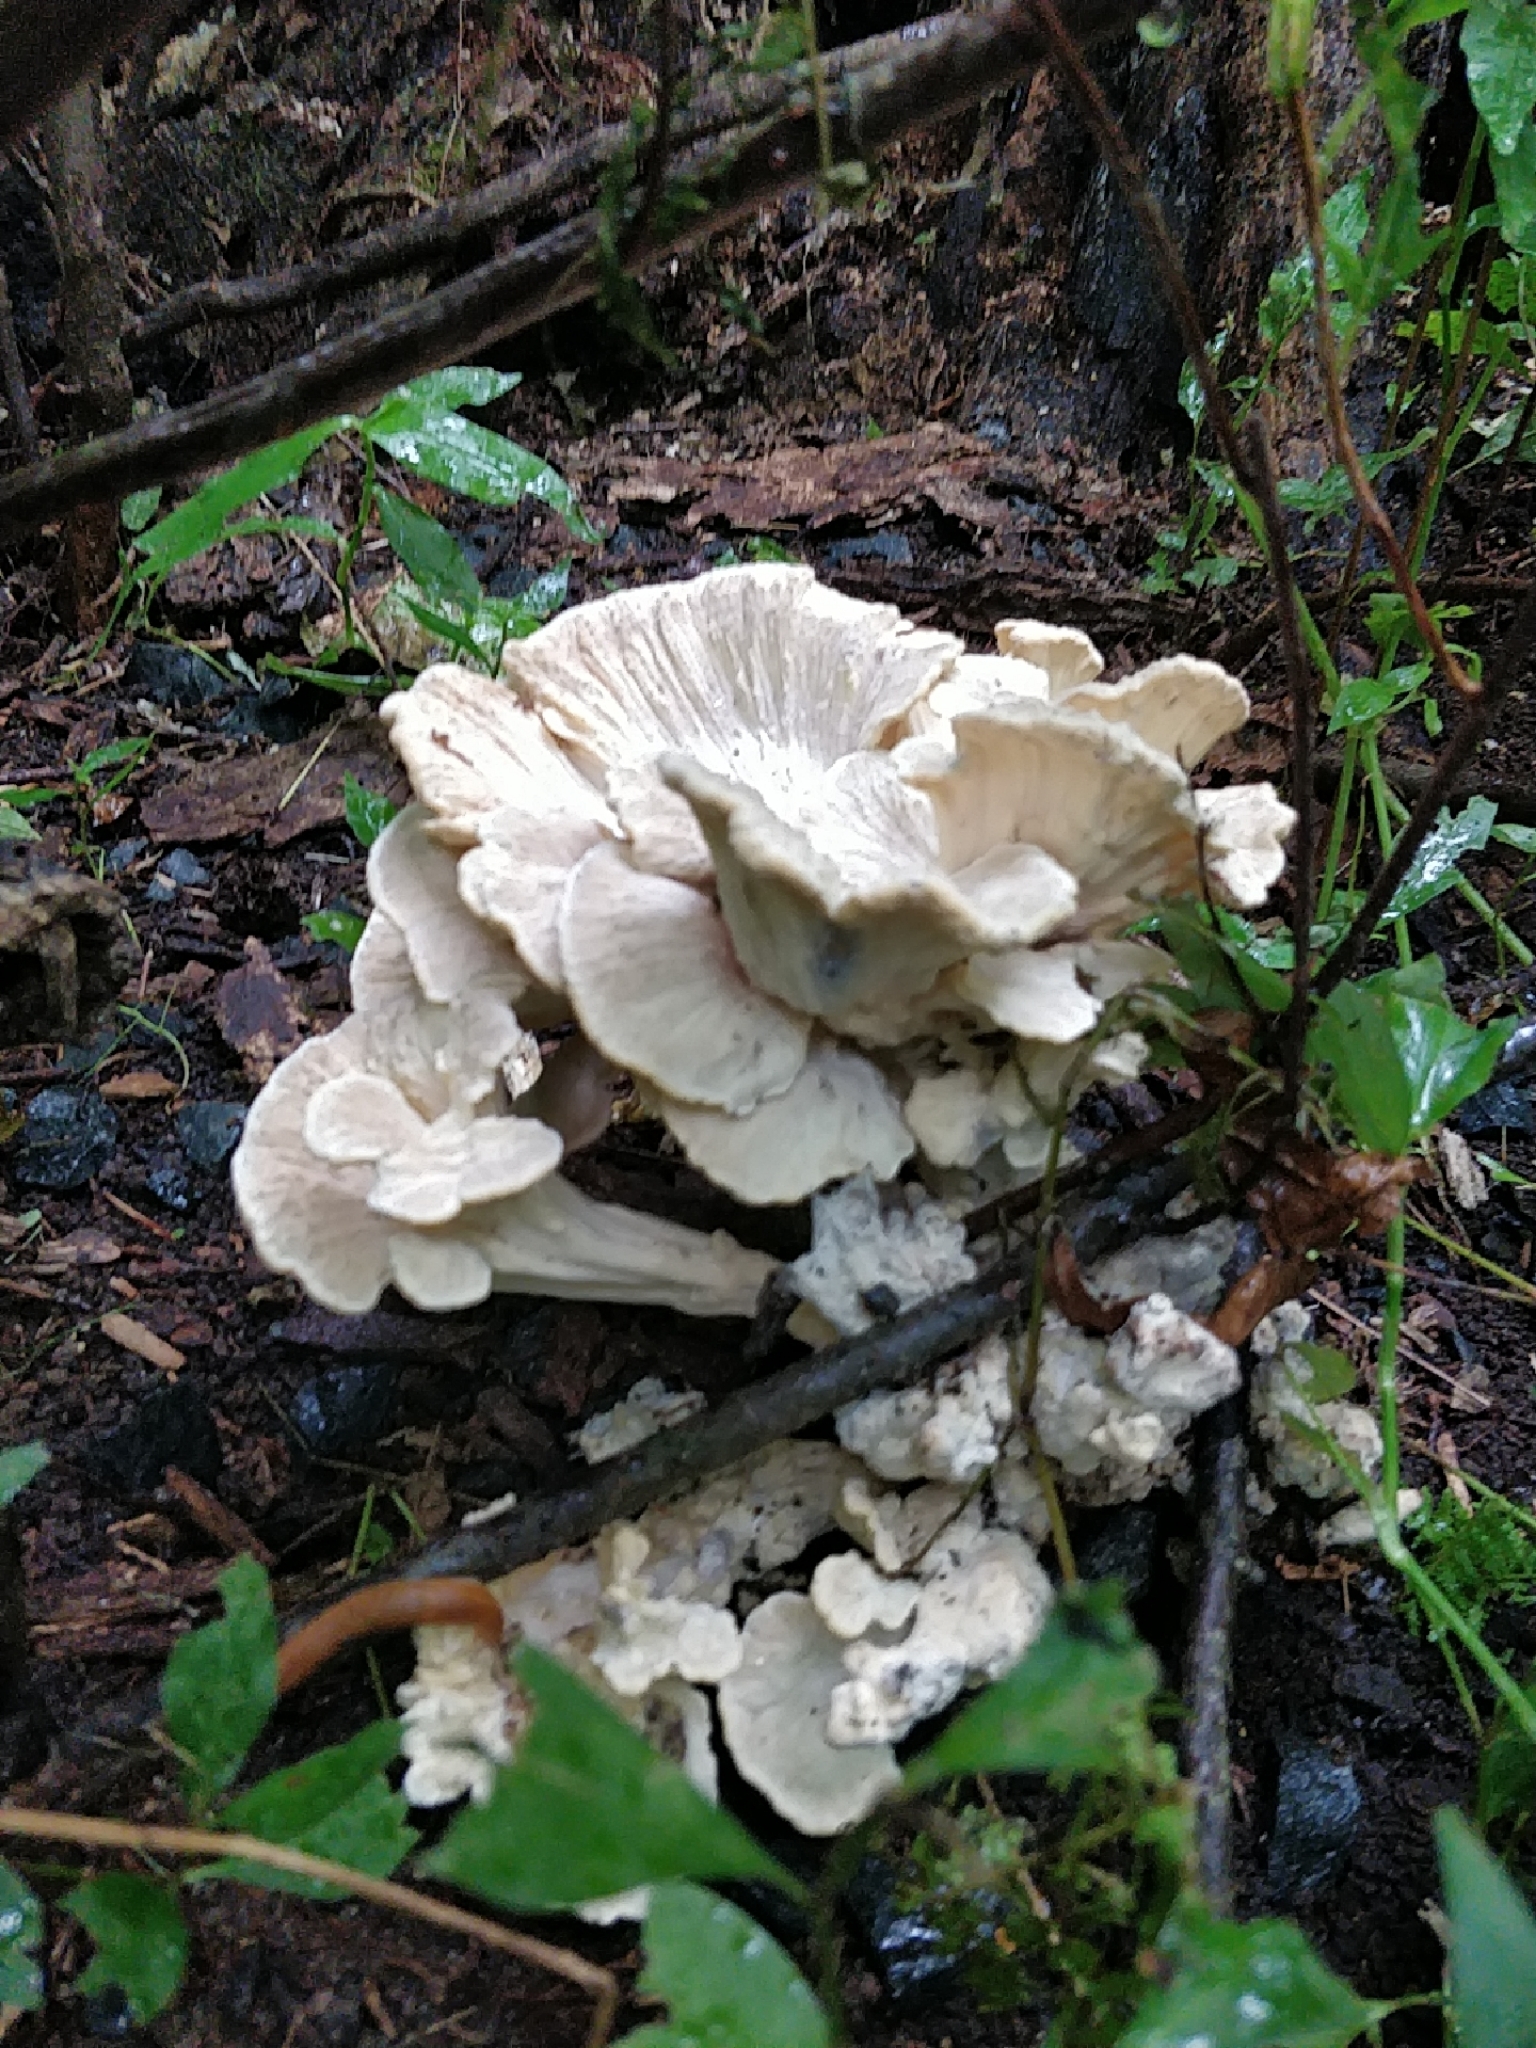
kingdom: Fungi
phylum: Basidiomycota
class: Agaricomycetes
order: Polyporales
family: Meripilaceae
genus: Meripilus
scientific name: Meripilus sumstinei
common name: Black-staining polypore
